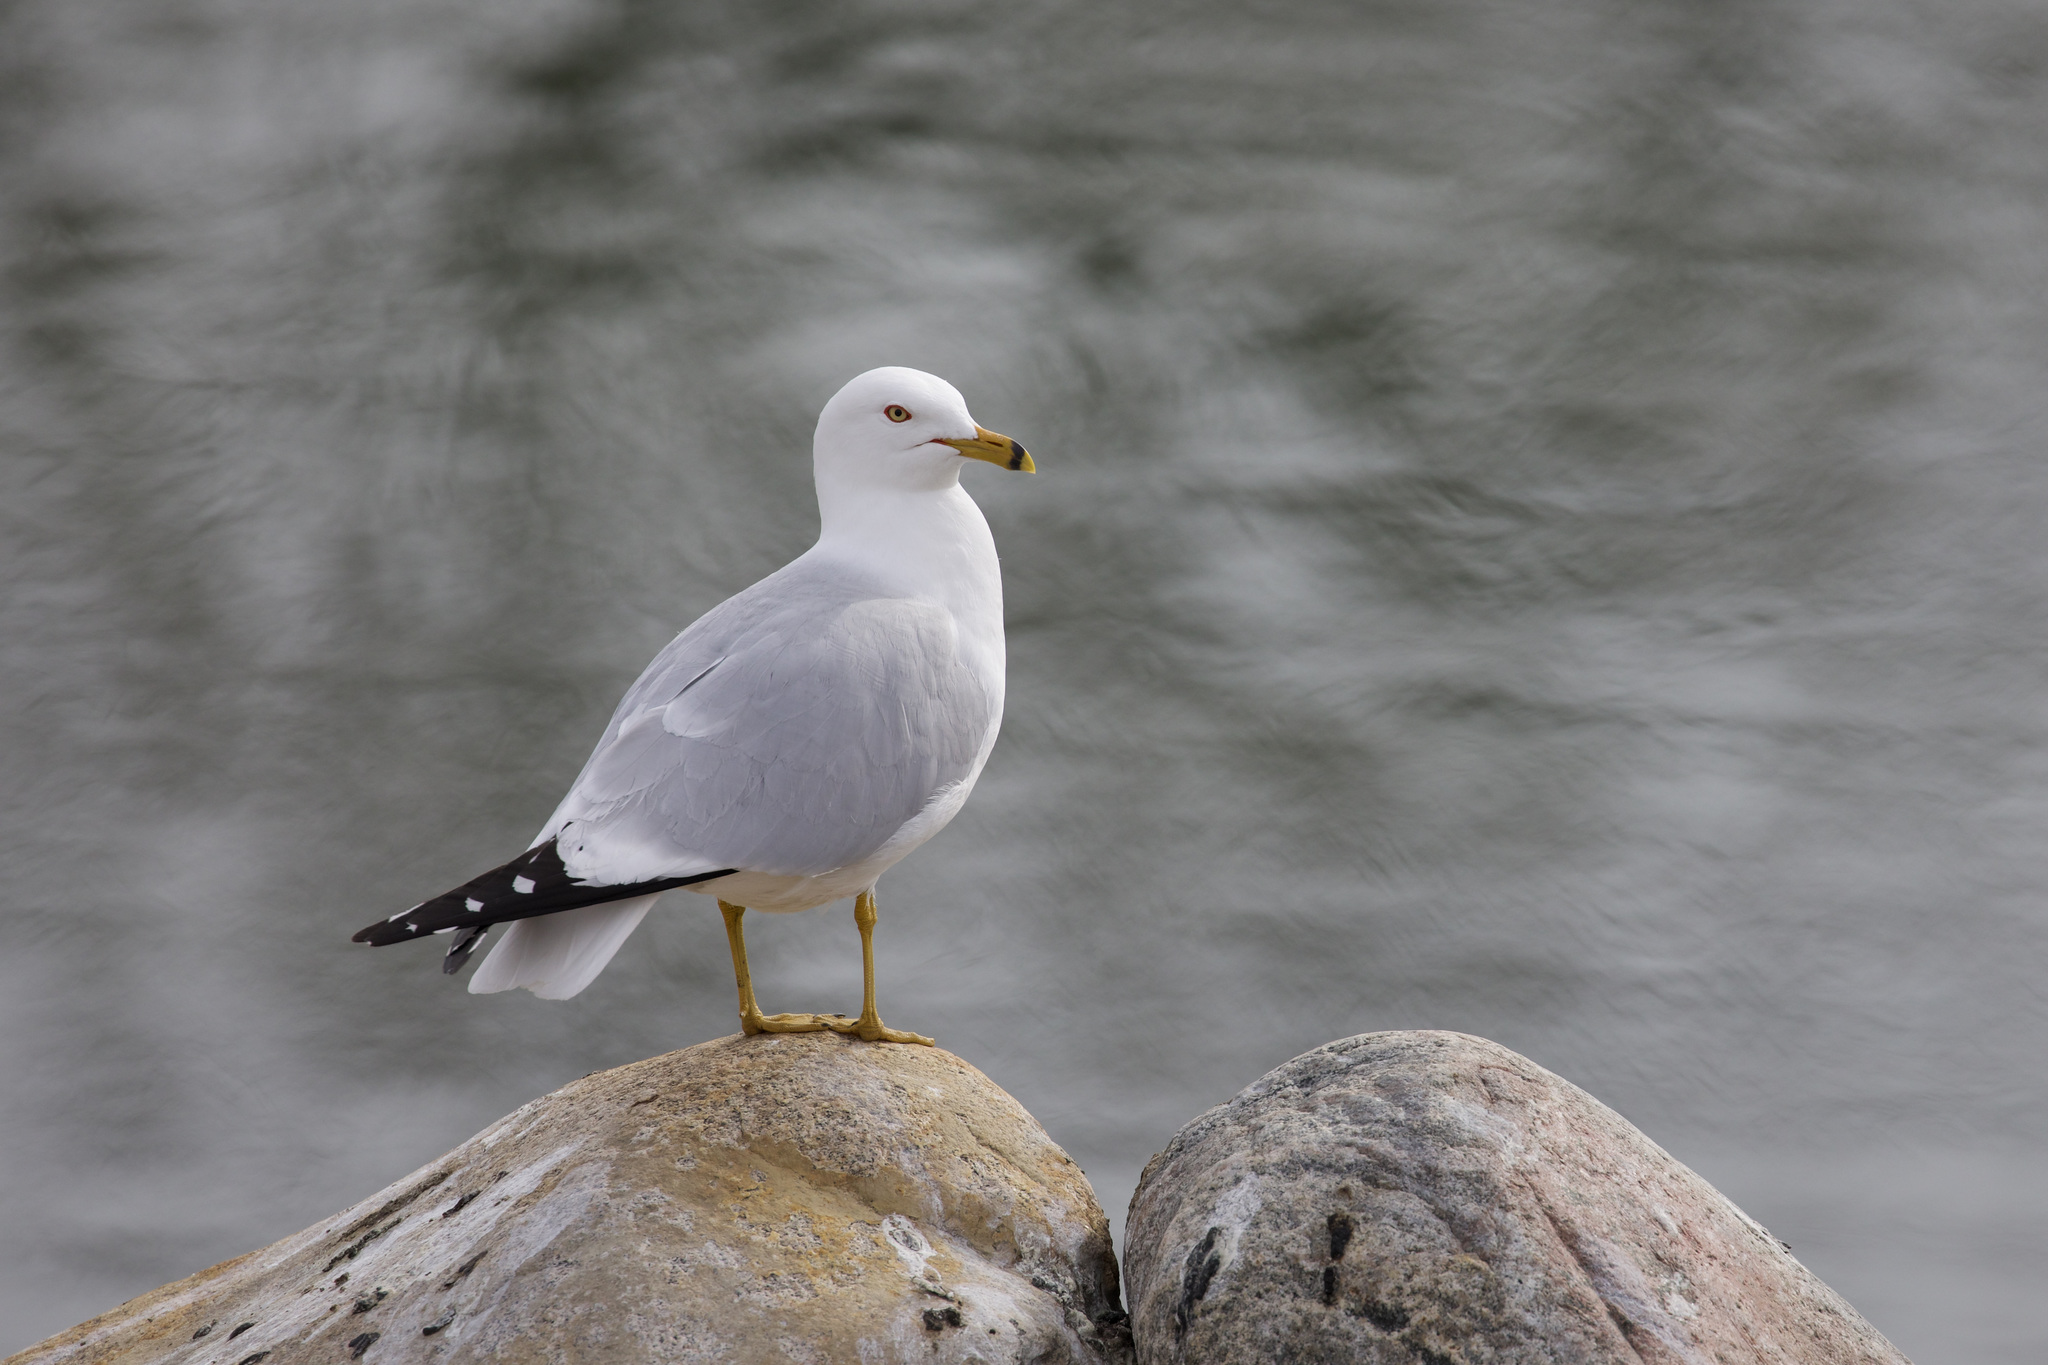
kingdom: Animalia
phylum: Chordata
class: Aves
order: Charadriiformes
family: Laridae
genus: Larus
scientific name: Larus delawarensis
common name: Ring-billed gull
